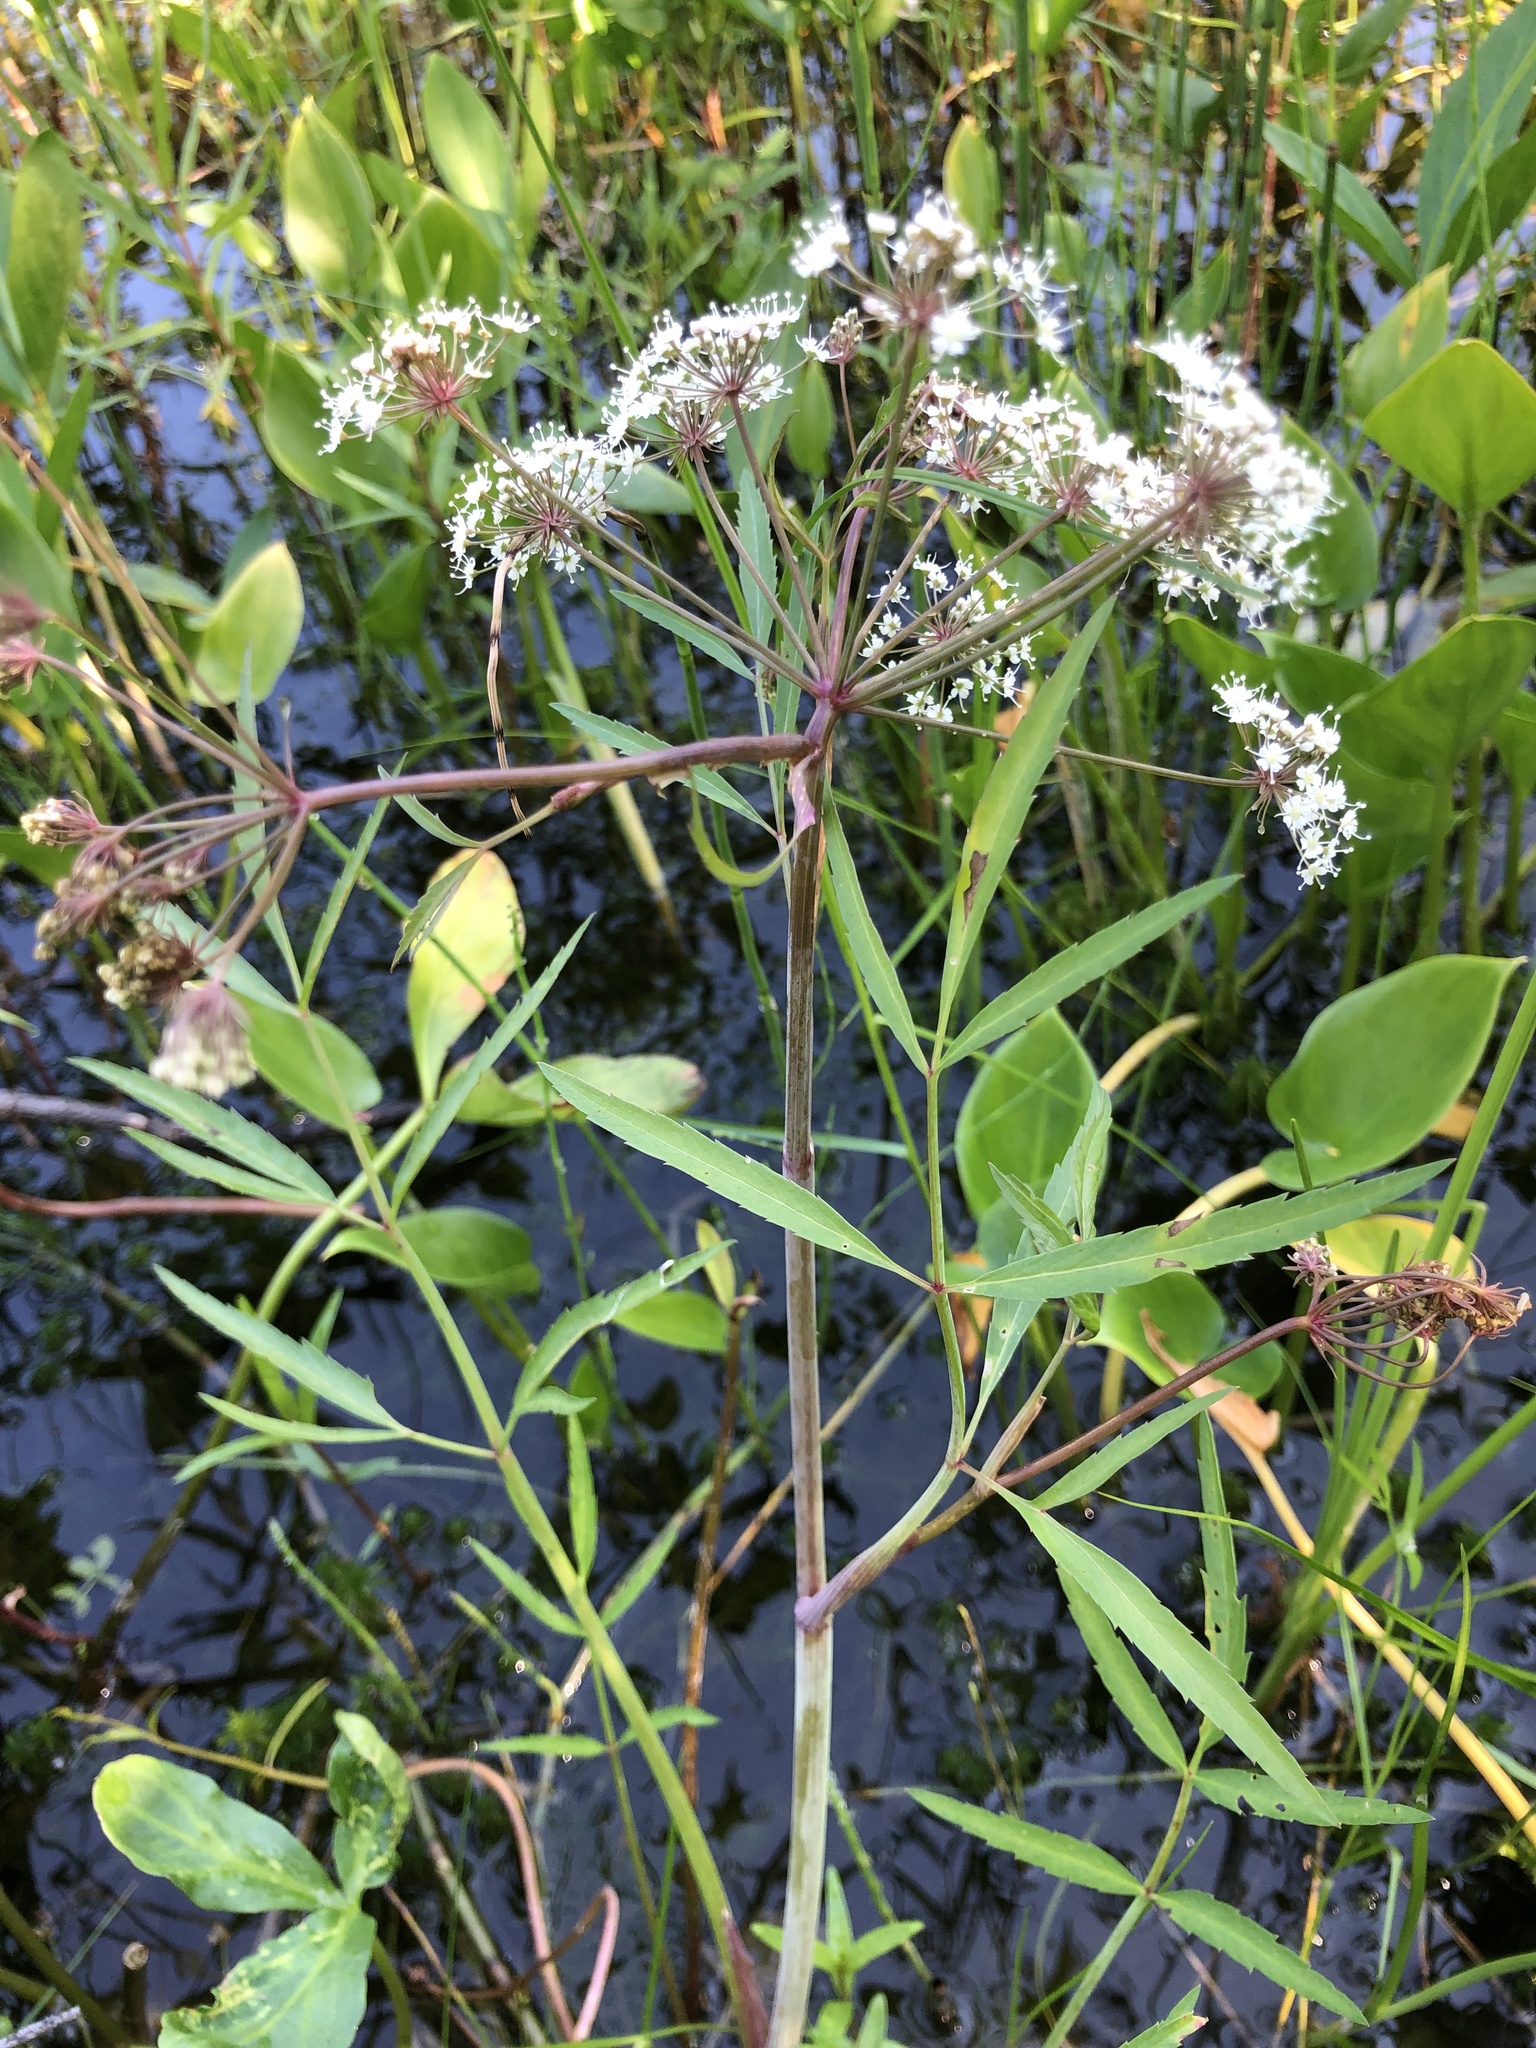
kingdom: Plantae
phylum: Tracheophyta
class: Magnoliopsida
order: Apiales
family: Apiaceae
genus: Cicuta
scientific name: Cicuta virosa
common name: Cowbane
